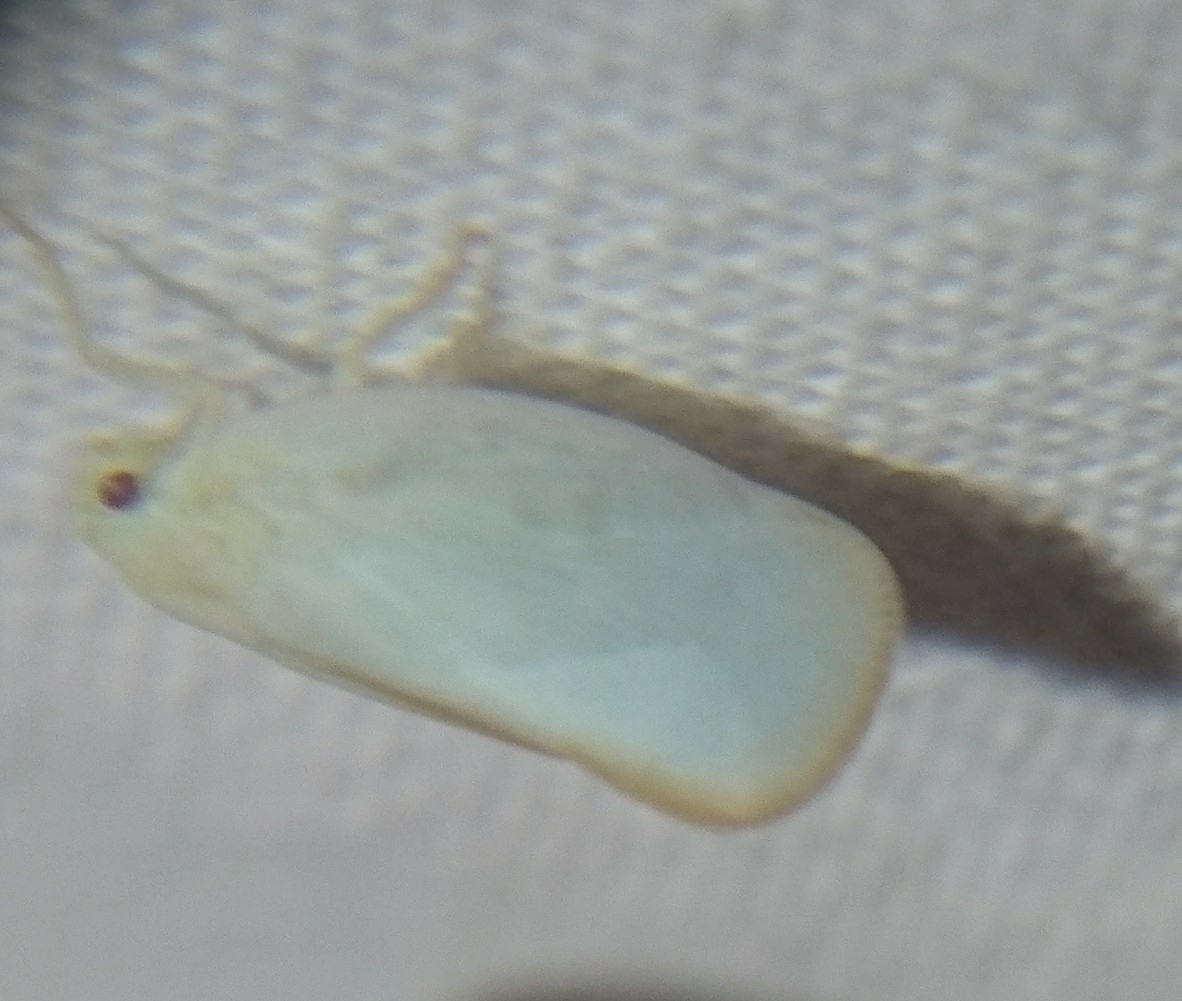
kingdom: Animalia
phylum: Arthropoda
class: Insecta
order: Hemiptera
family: Flatidae
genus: Ormenoides
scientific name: Ormenoides venusta
